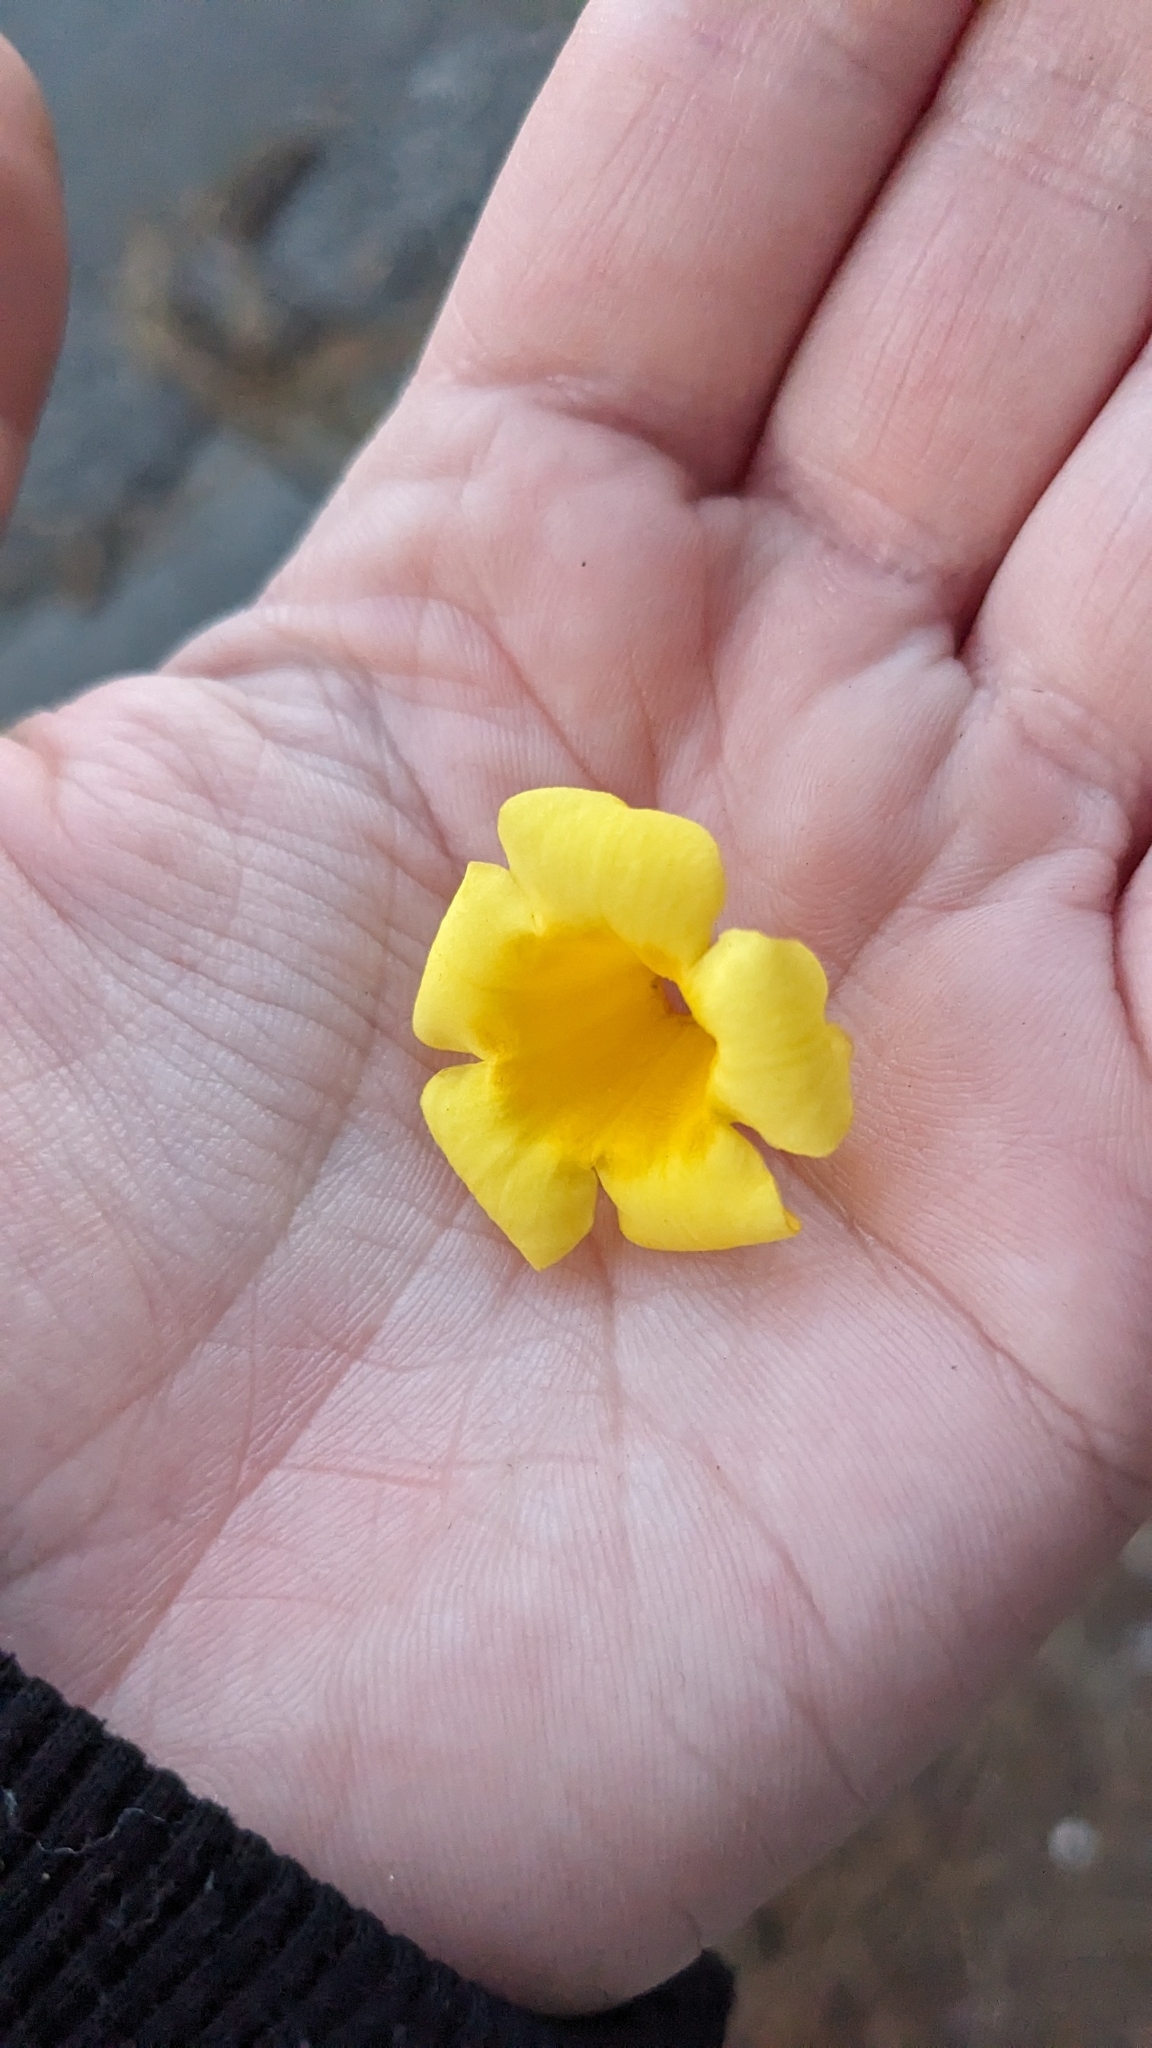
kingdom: Plantae
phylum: Tracheophyta
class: Magnoliopsida
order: Gentianales
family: Gelsemiaceae
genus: Gelsemium
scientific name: Gelsemium sempervirens
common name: Carolina-jasmine
